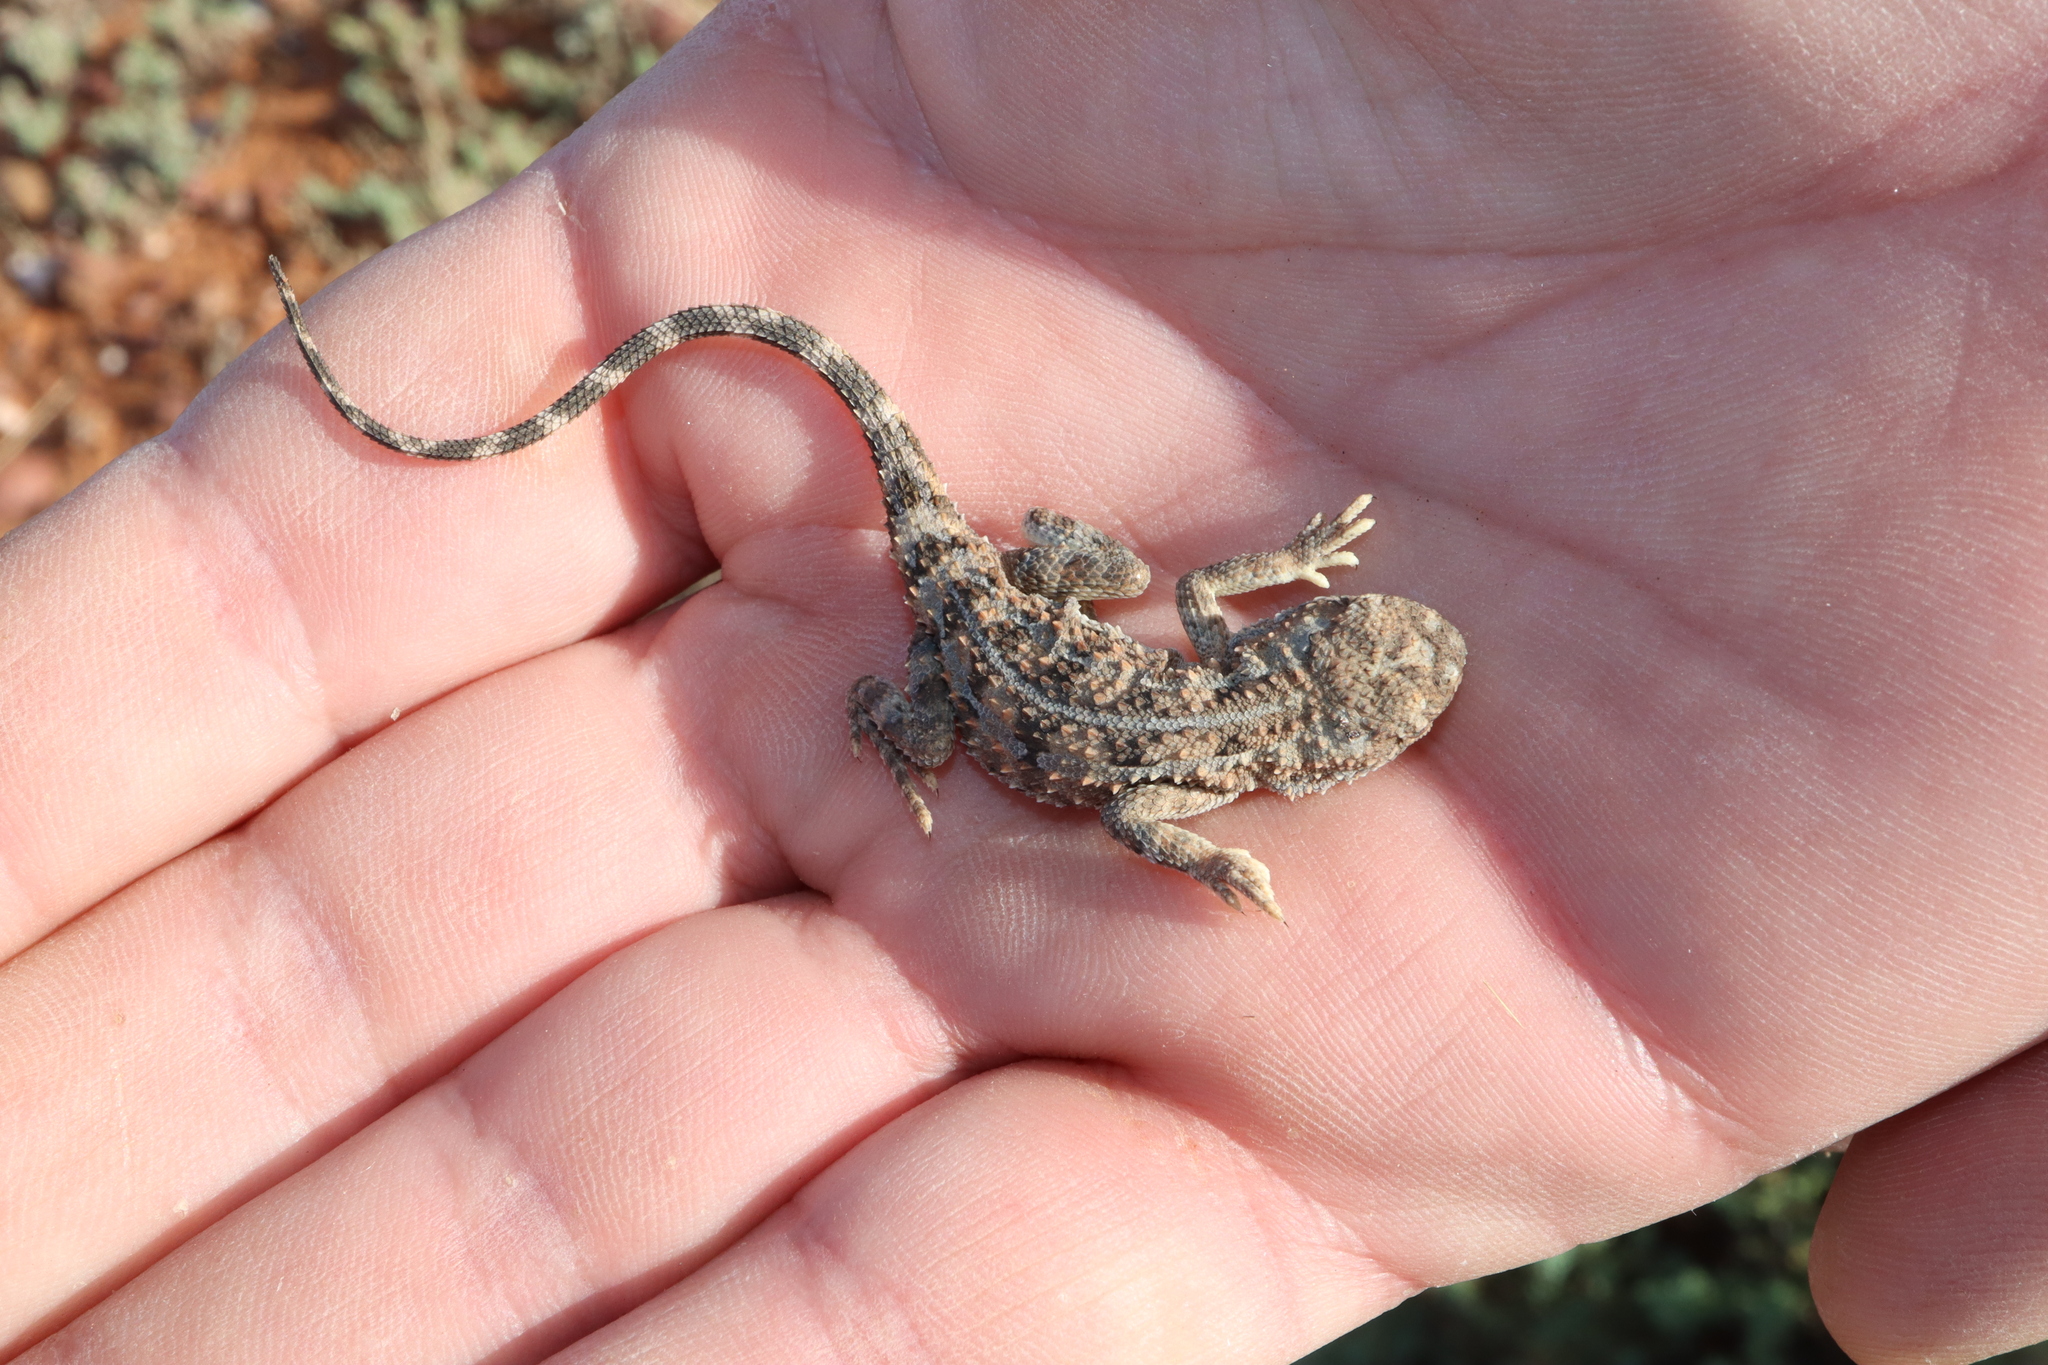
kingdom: Animalia
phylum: Chordata
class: Squamata
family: Agamidae
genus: Tympanocryptis
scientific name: Tympanocryptis tetraporophora
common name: Eyrean earless dragon
